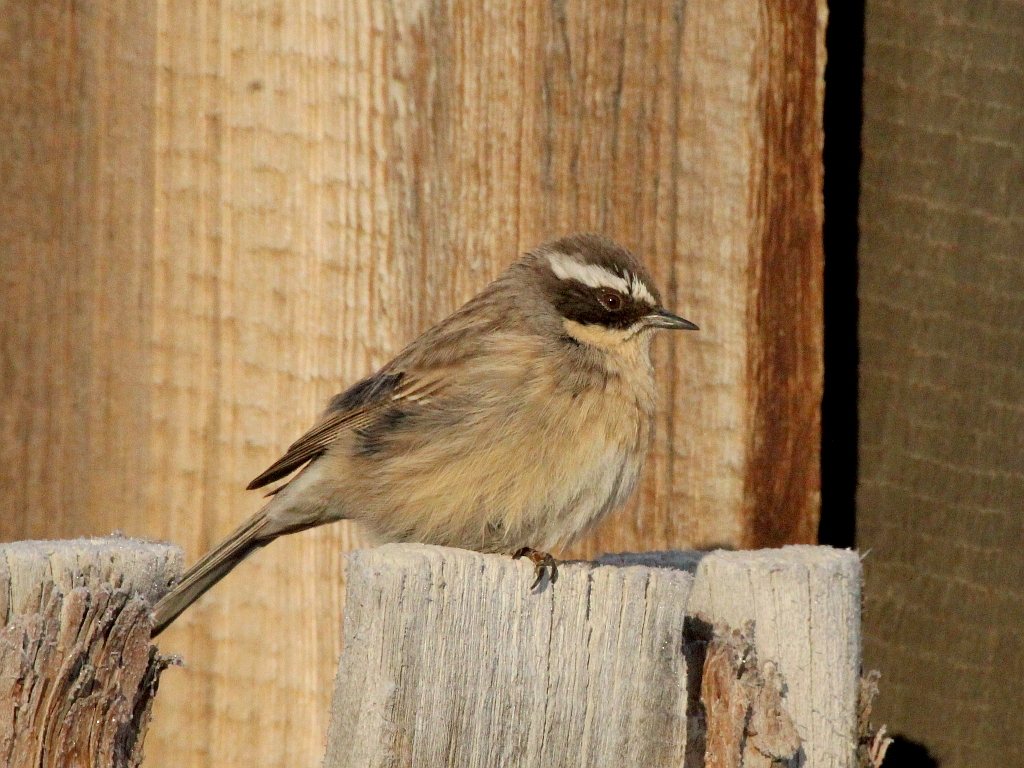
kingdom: Animalia
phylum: Chordata
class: Aves
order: Passeriformes
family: Prunellidae
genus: Prunella
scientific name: Prunella fulvescens
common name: Brown accentor
